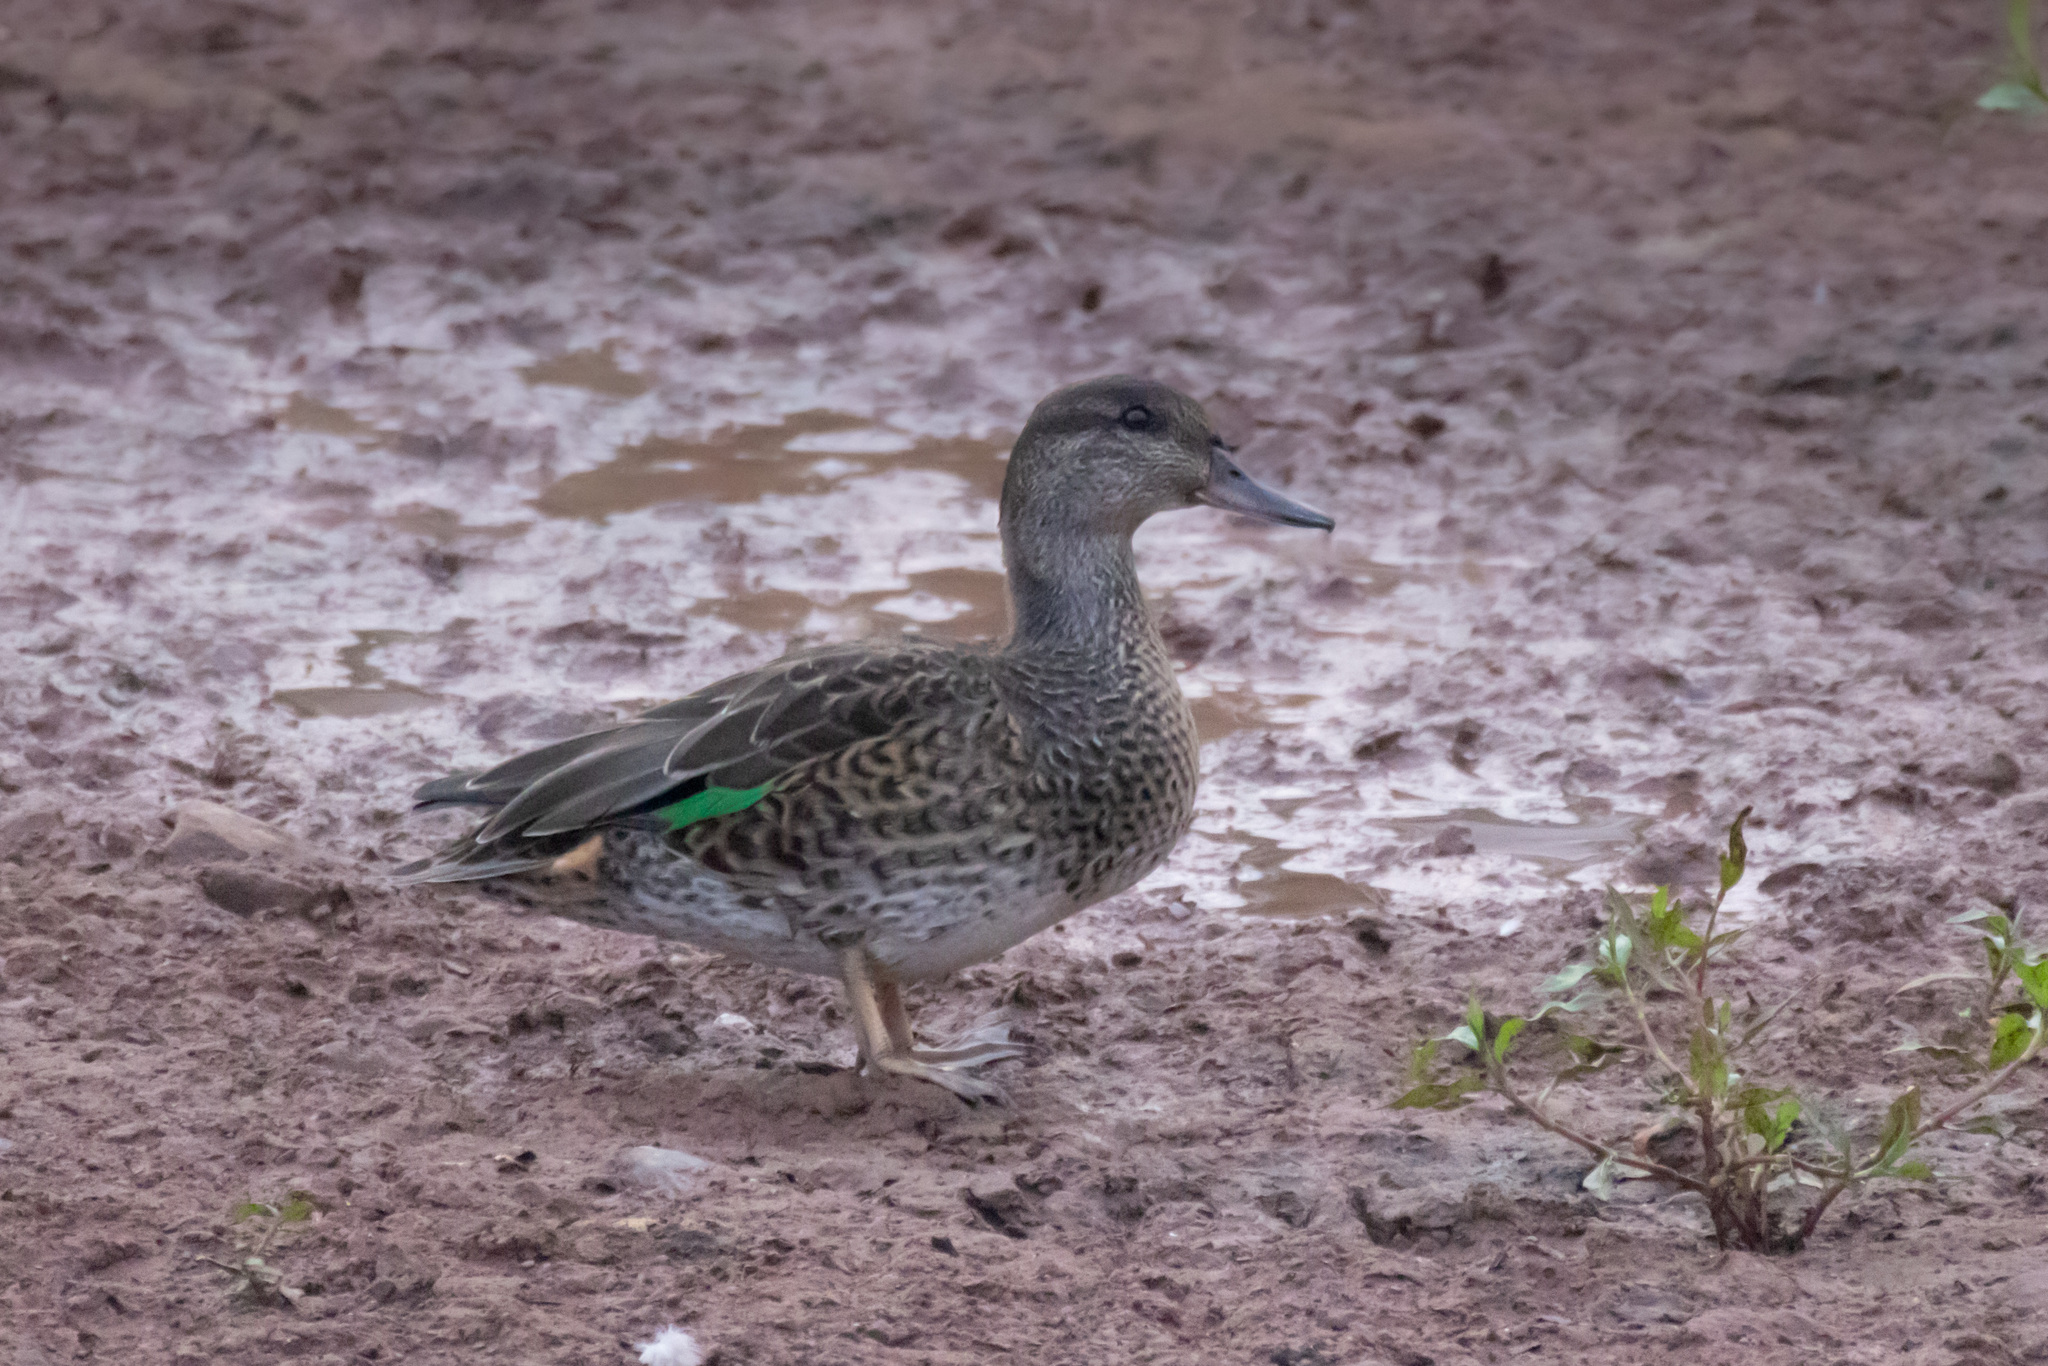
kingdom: Animalia
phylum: Chordata
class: Aves
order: Anseriformes
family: Anatidae
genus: Anas
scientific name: Anas crecca
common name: Eurasian teal
